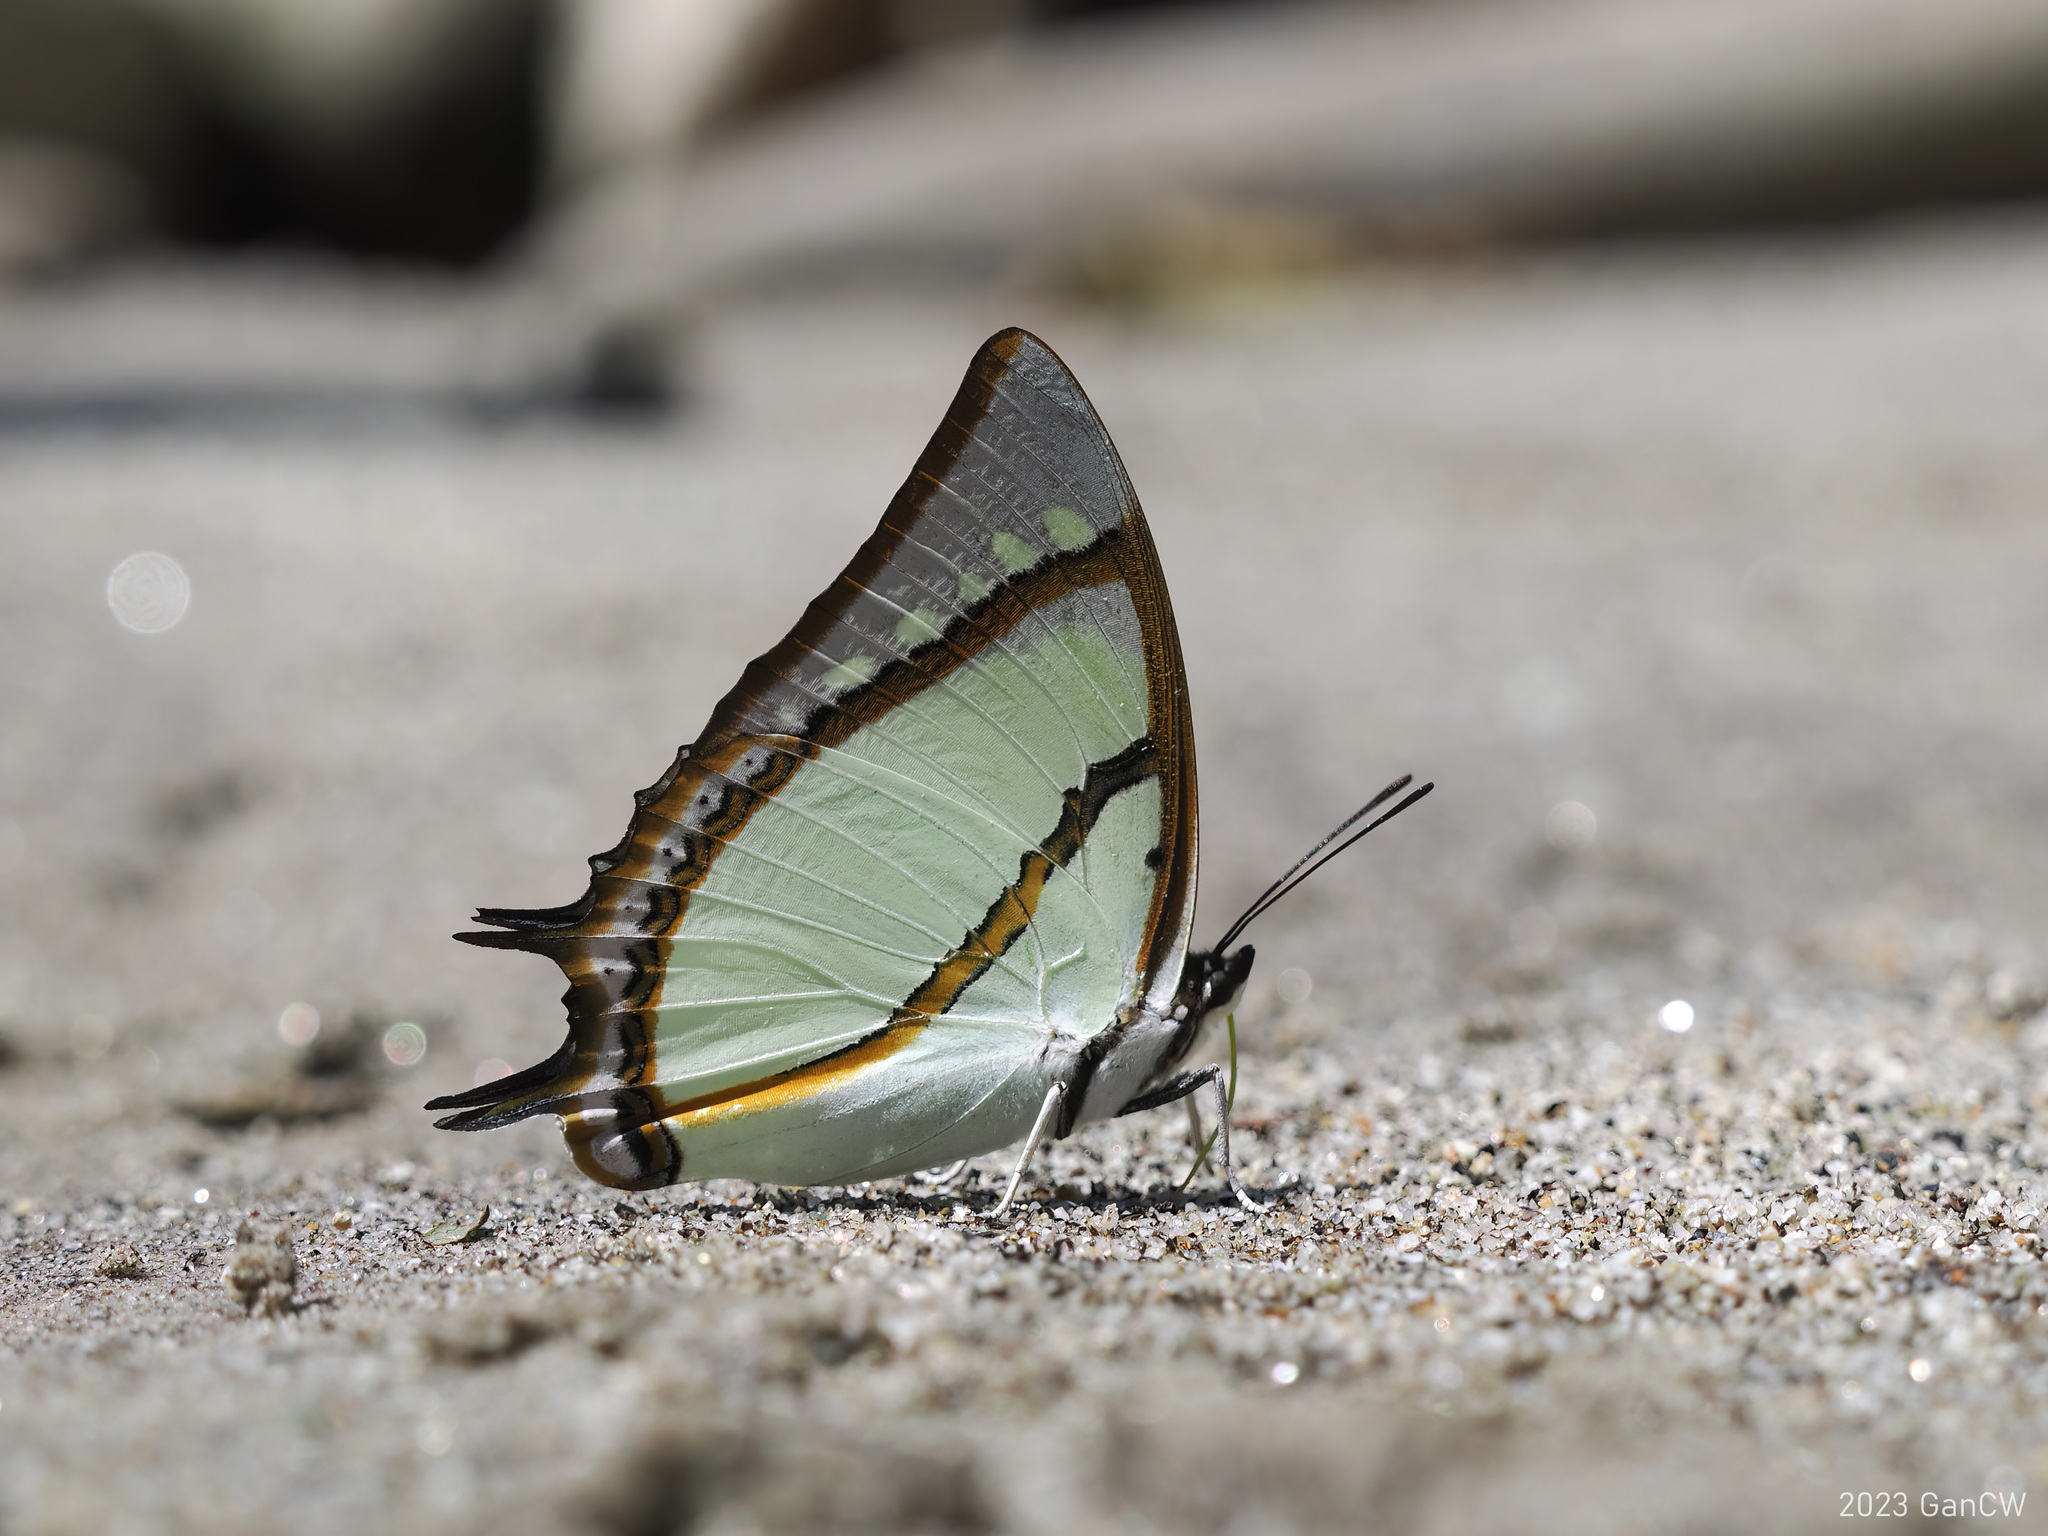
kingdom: Animalia
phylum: Arthropoda
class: Insecta
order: Lepidoptera
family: Nymphalidae
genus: Polyura
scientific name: Polyura dolon
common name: Stately nawab
